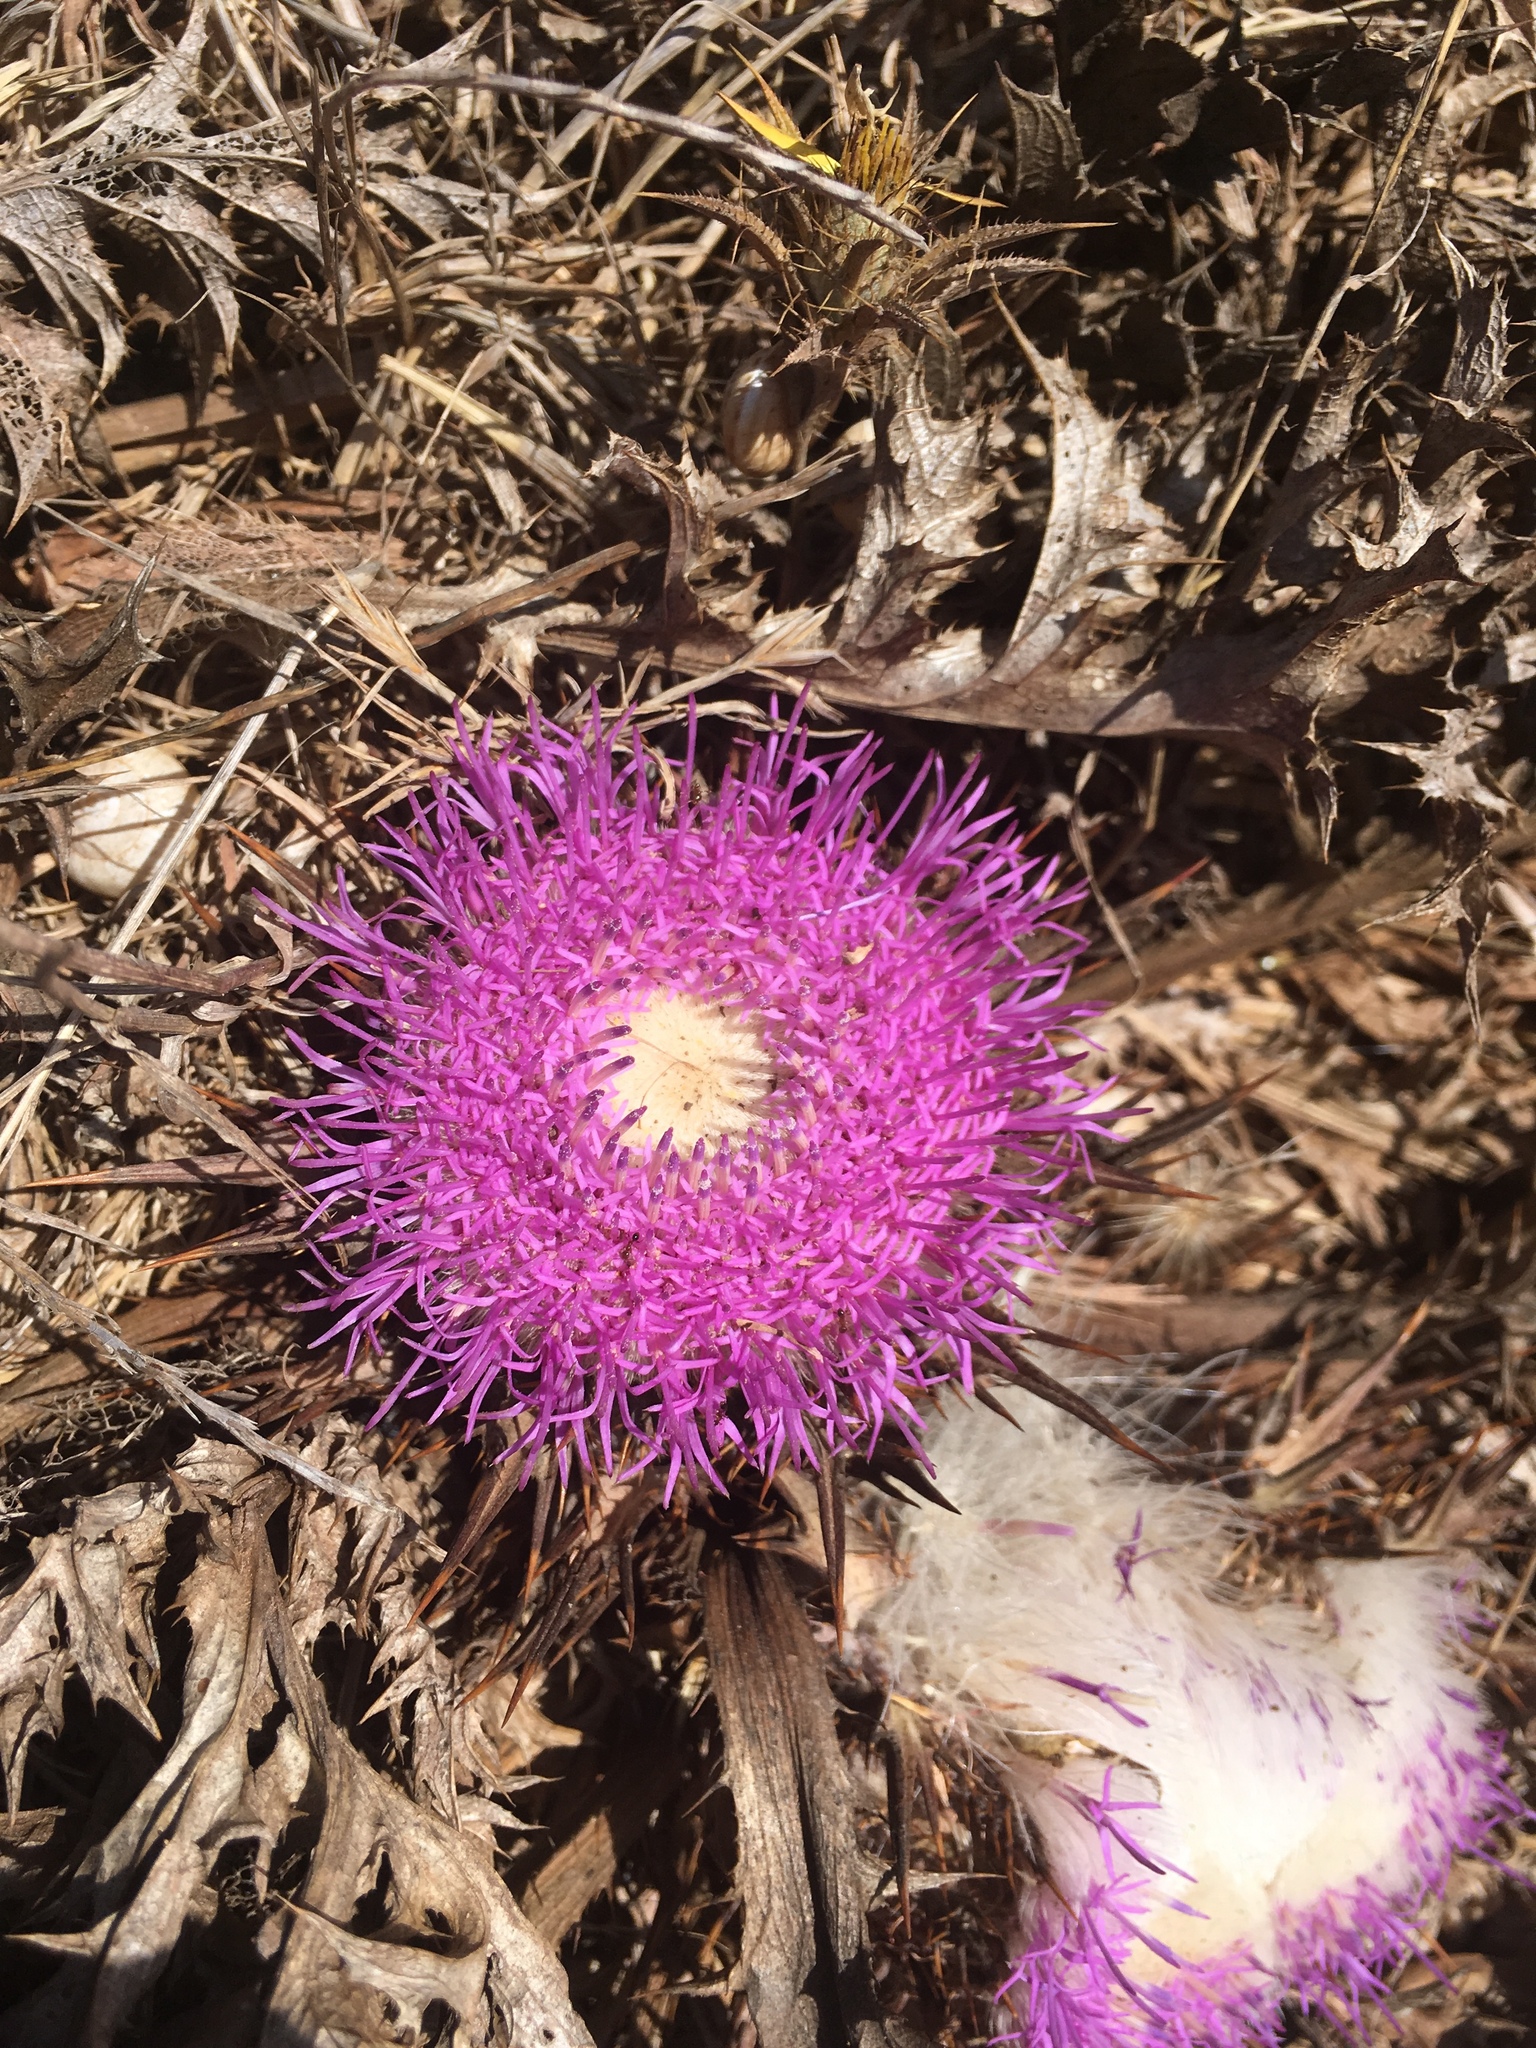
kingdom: Plantae
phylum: Tracheophyta
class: Magnoliopsida
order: Asterales
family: Asteraceae
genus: Chamaeleon
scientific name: Chamaeleon gummifer
